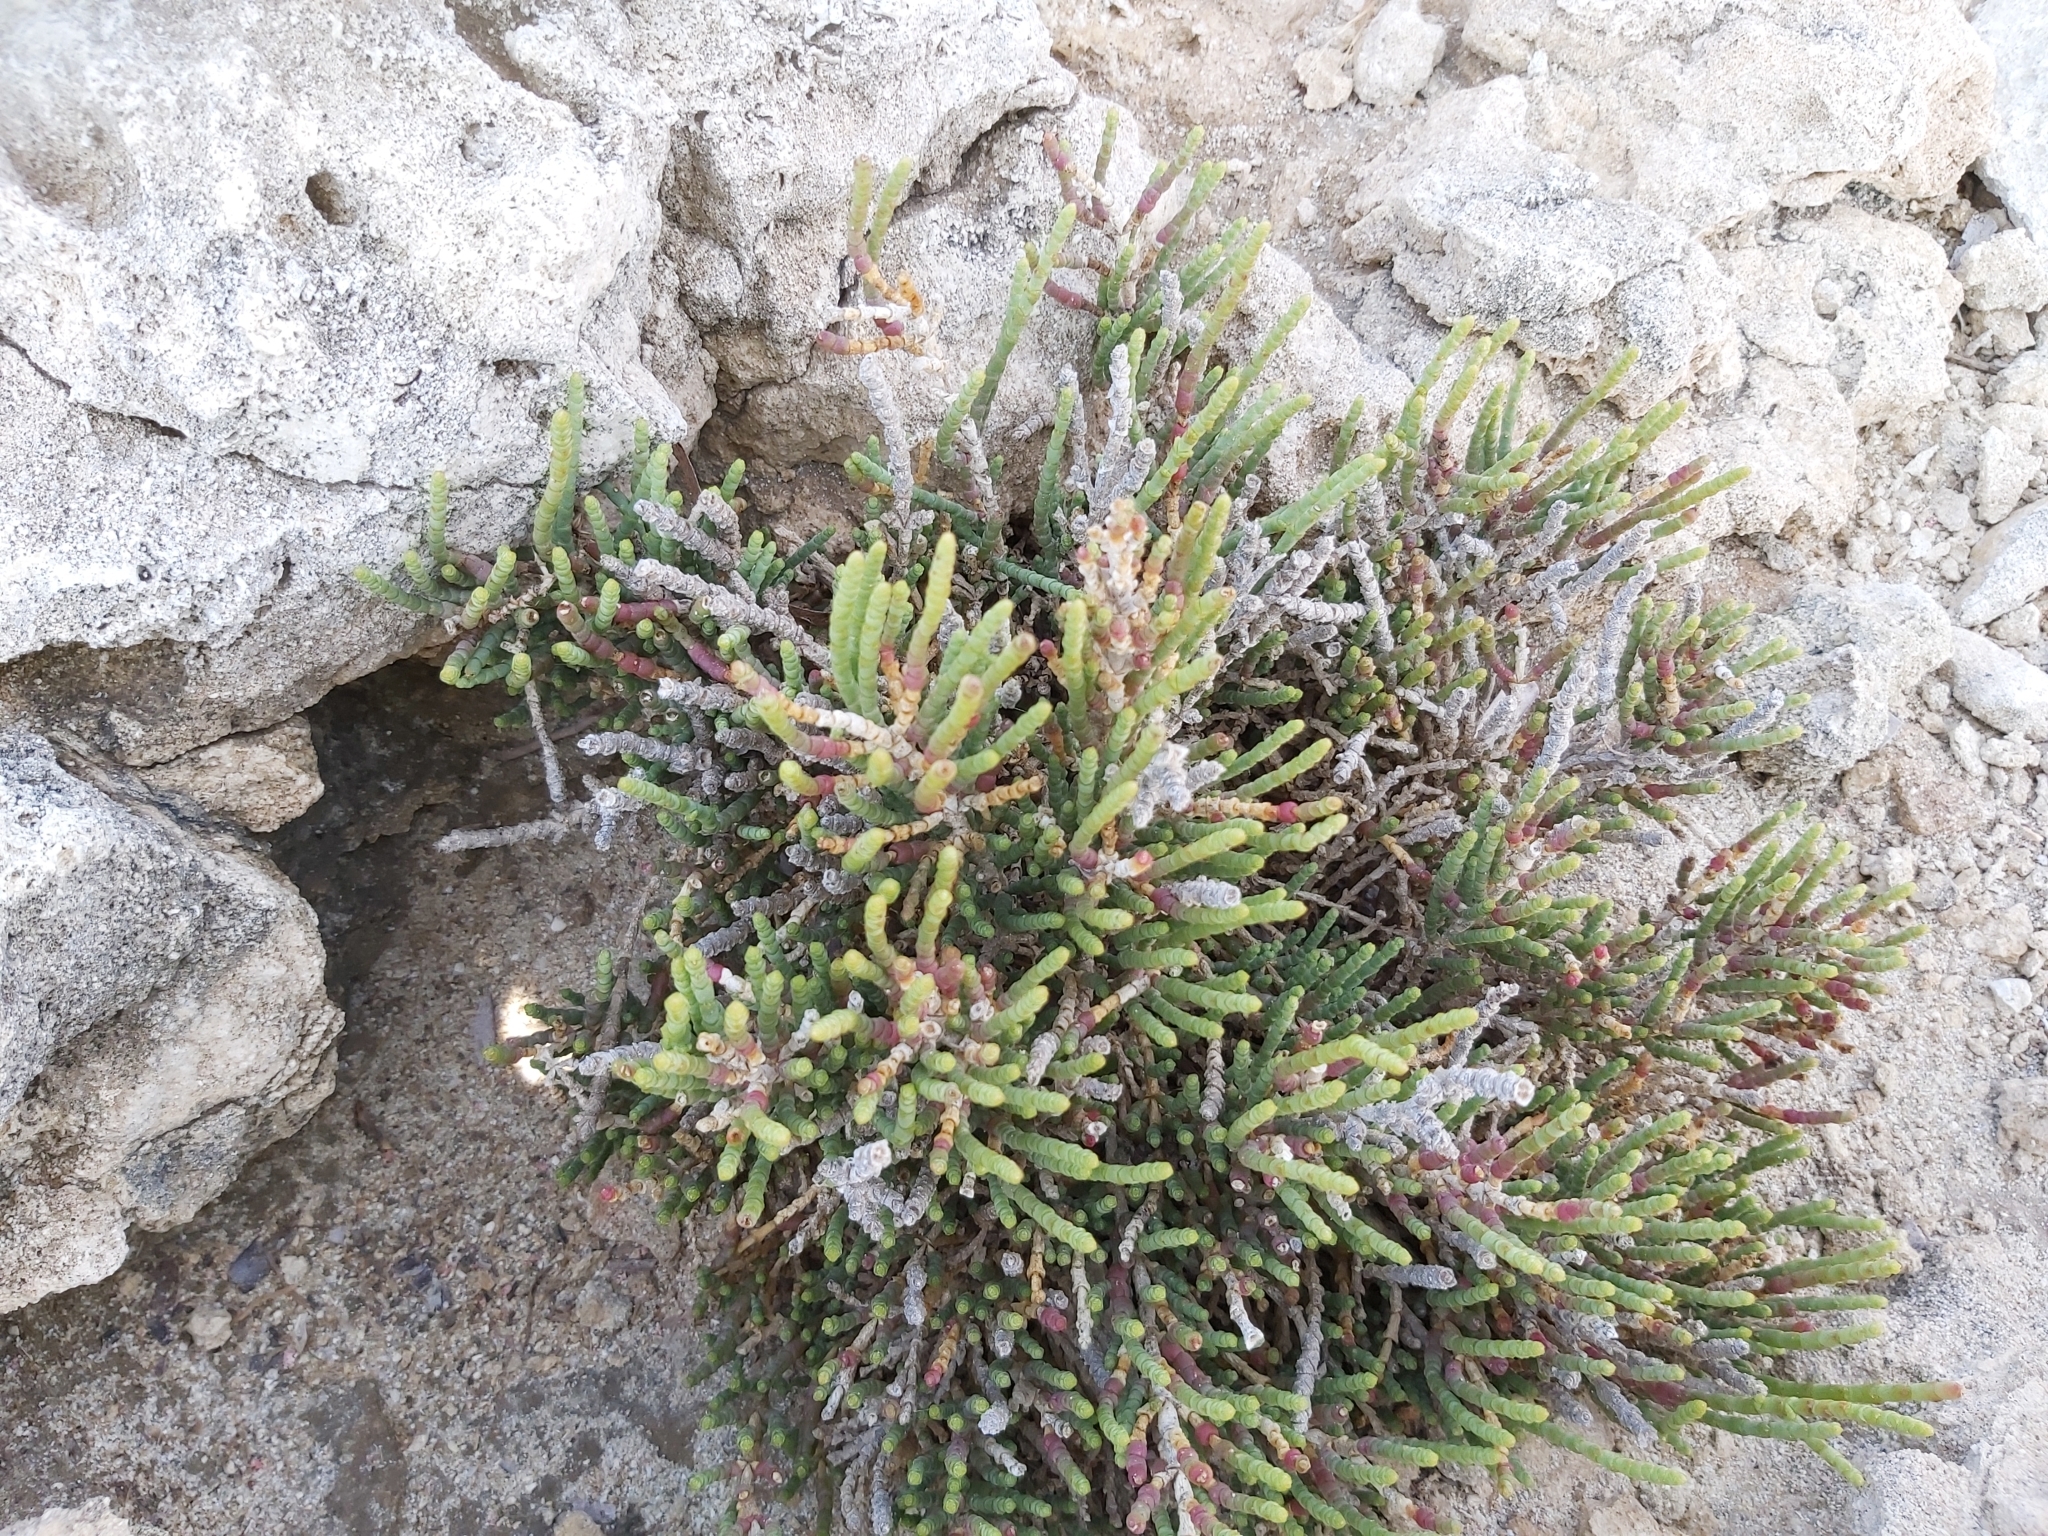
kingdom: Plantae
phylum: Tracheophyta
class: Magnoliopsida
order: Caryophyllales
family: Amaranthaceae
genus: Arthrocaulon
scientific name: Arthrocaulon macrostachyum
